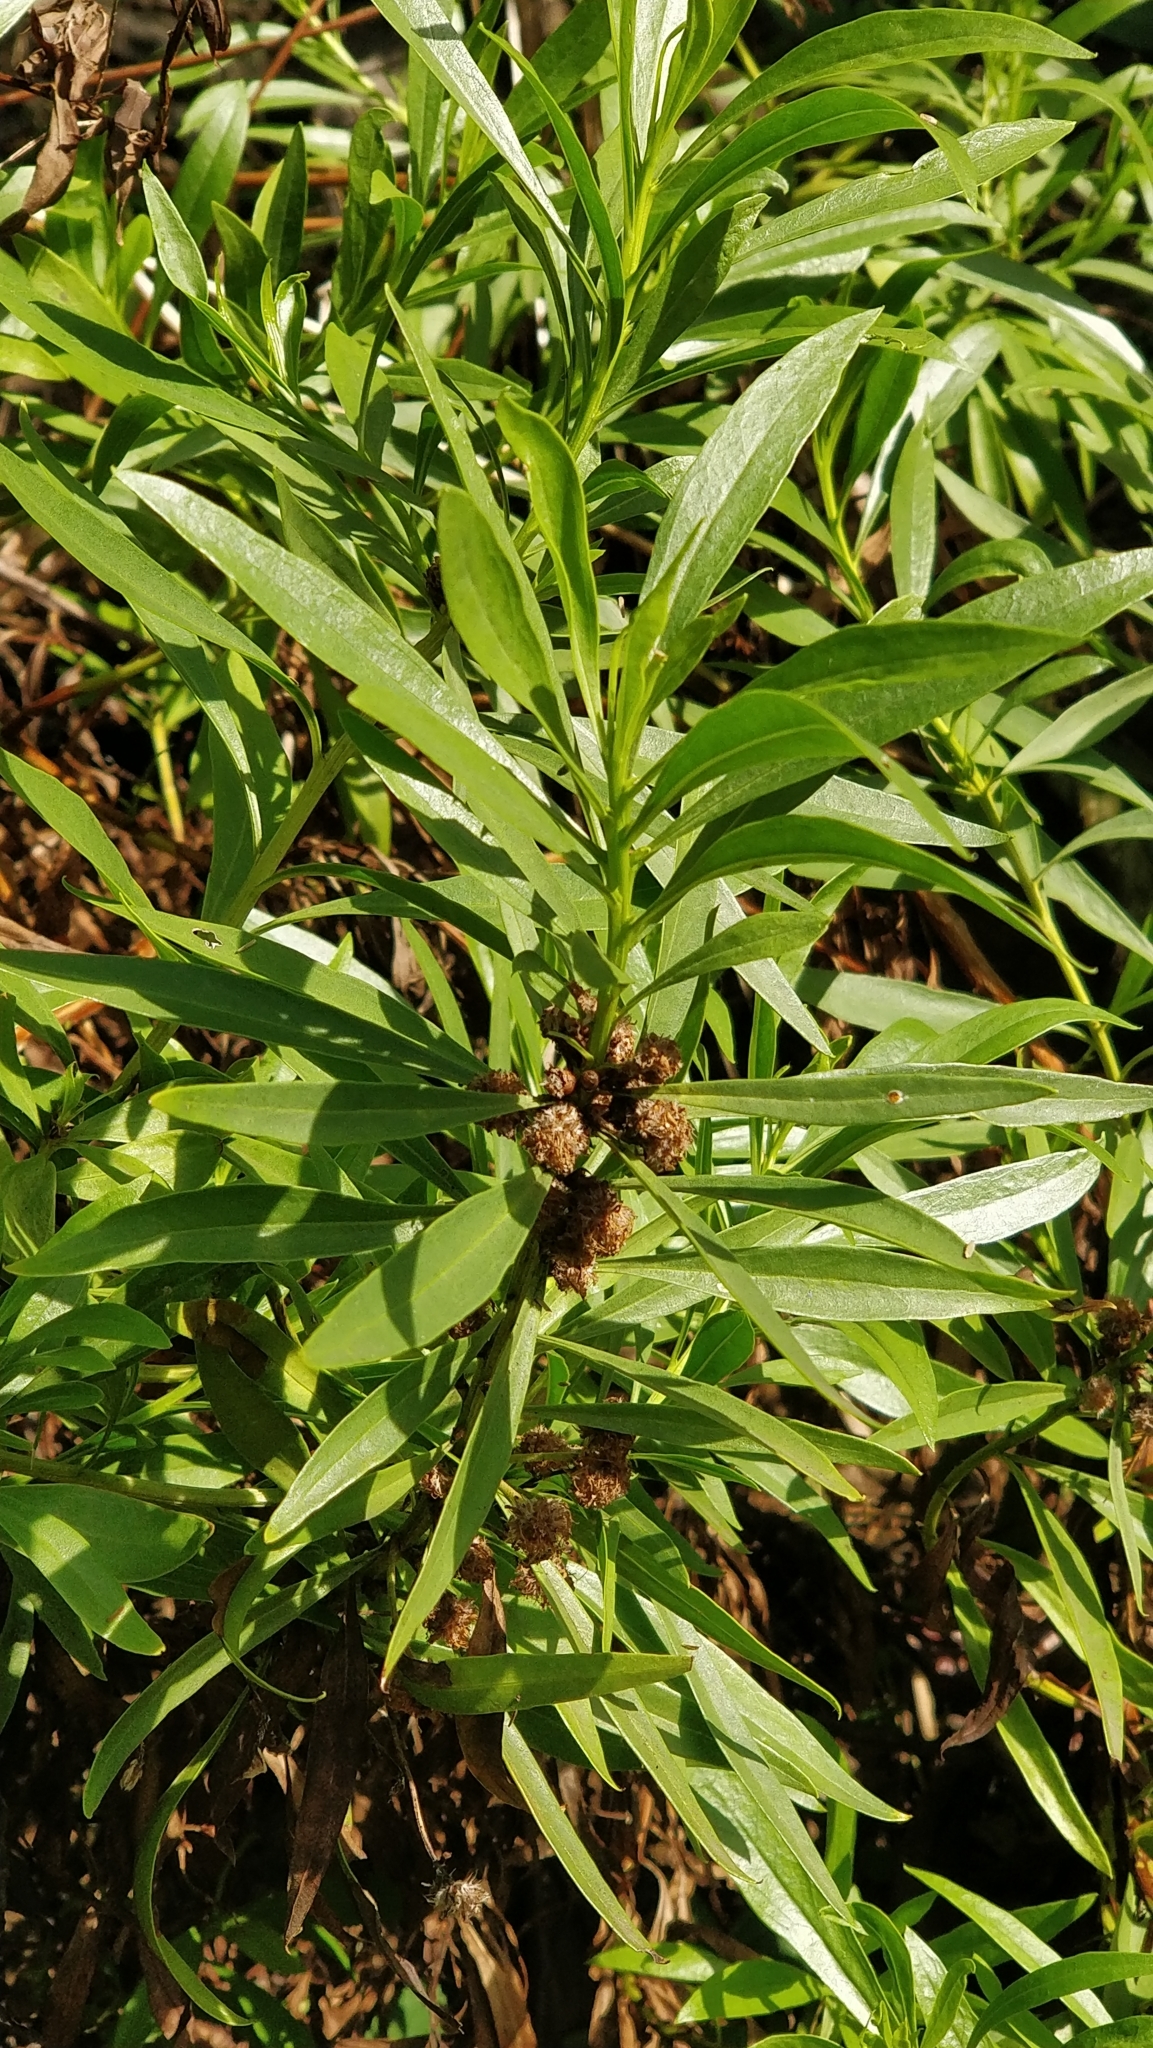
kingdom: Plantae
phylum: Tracheophyta
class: Magnoliopsida
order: Lamiales
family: Plantaginaceae
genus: Globularia
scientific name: Globularia salicina
